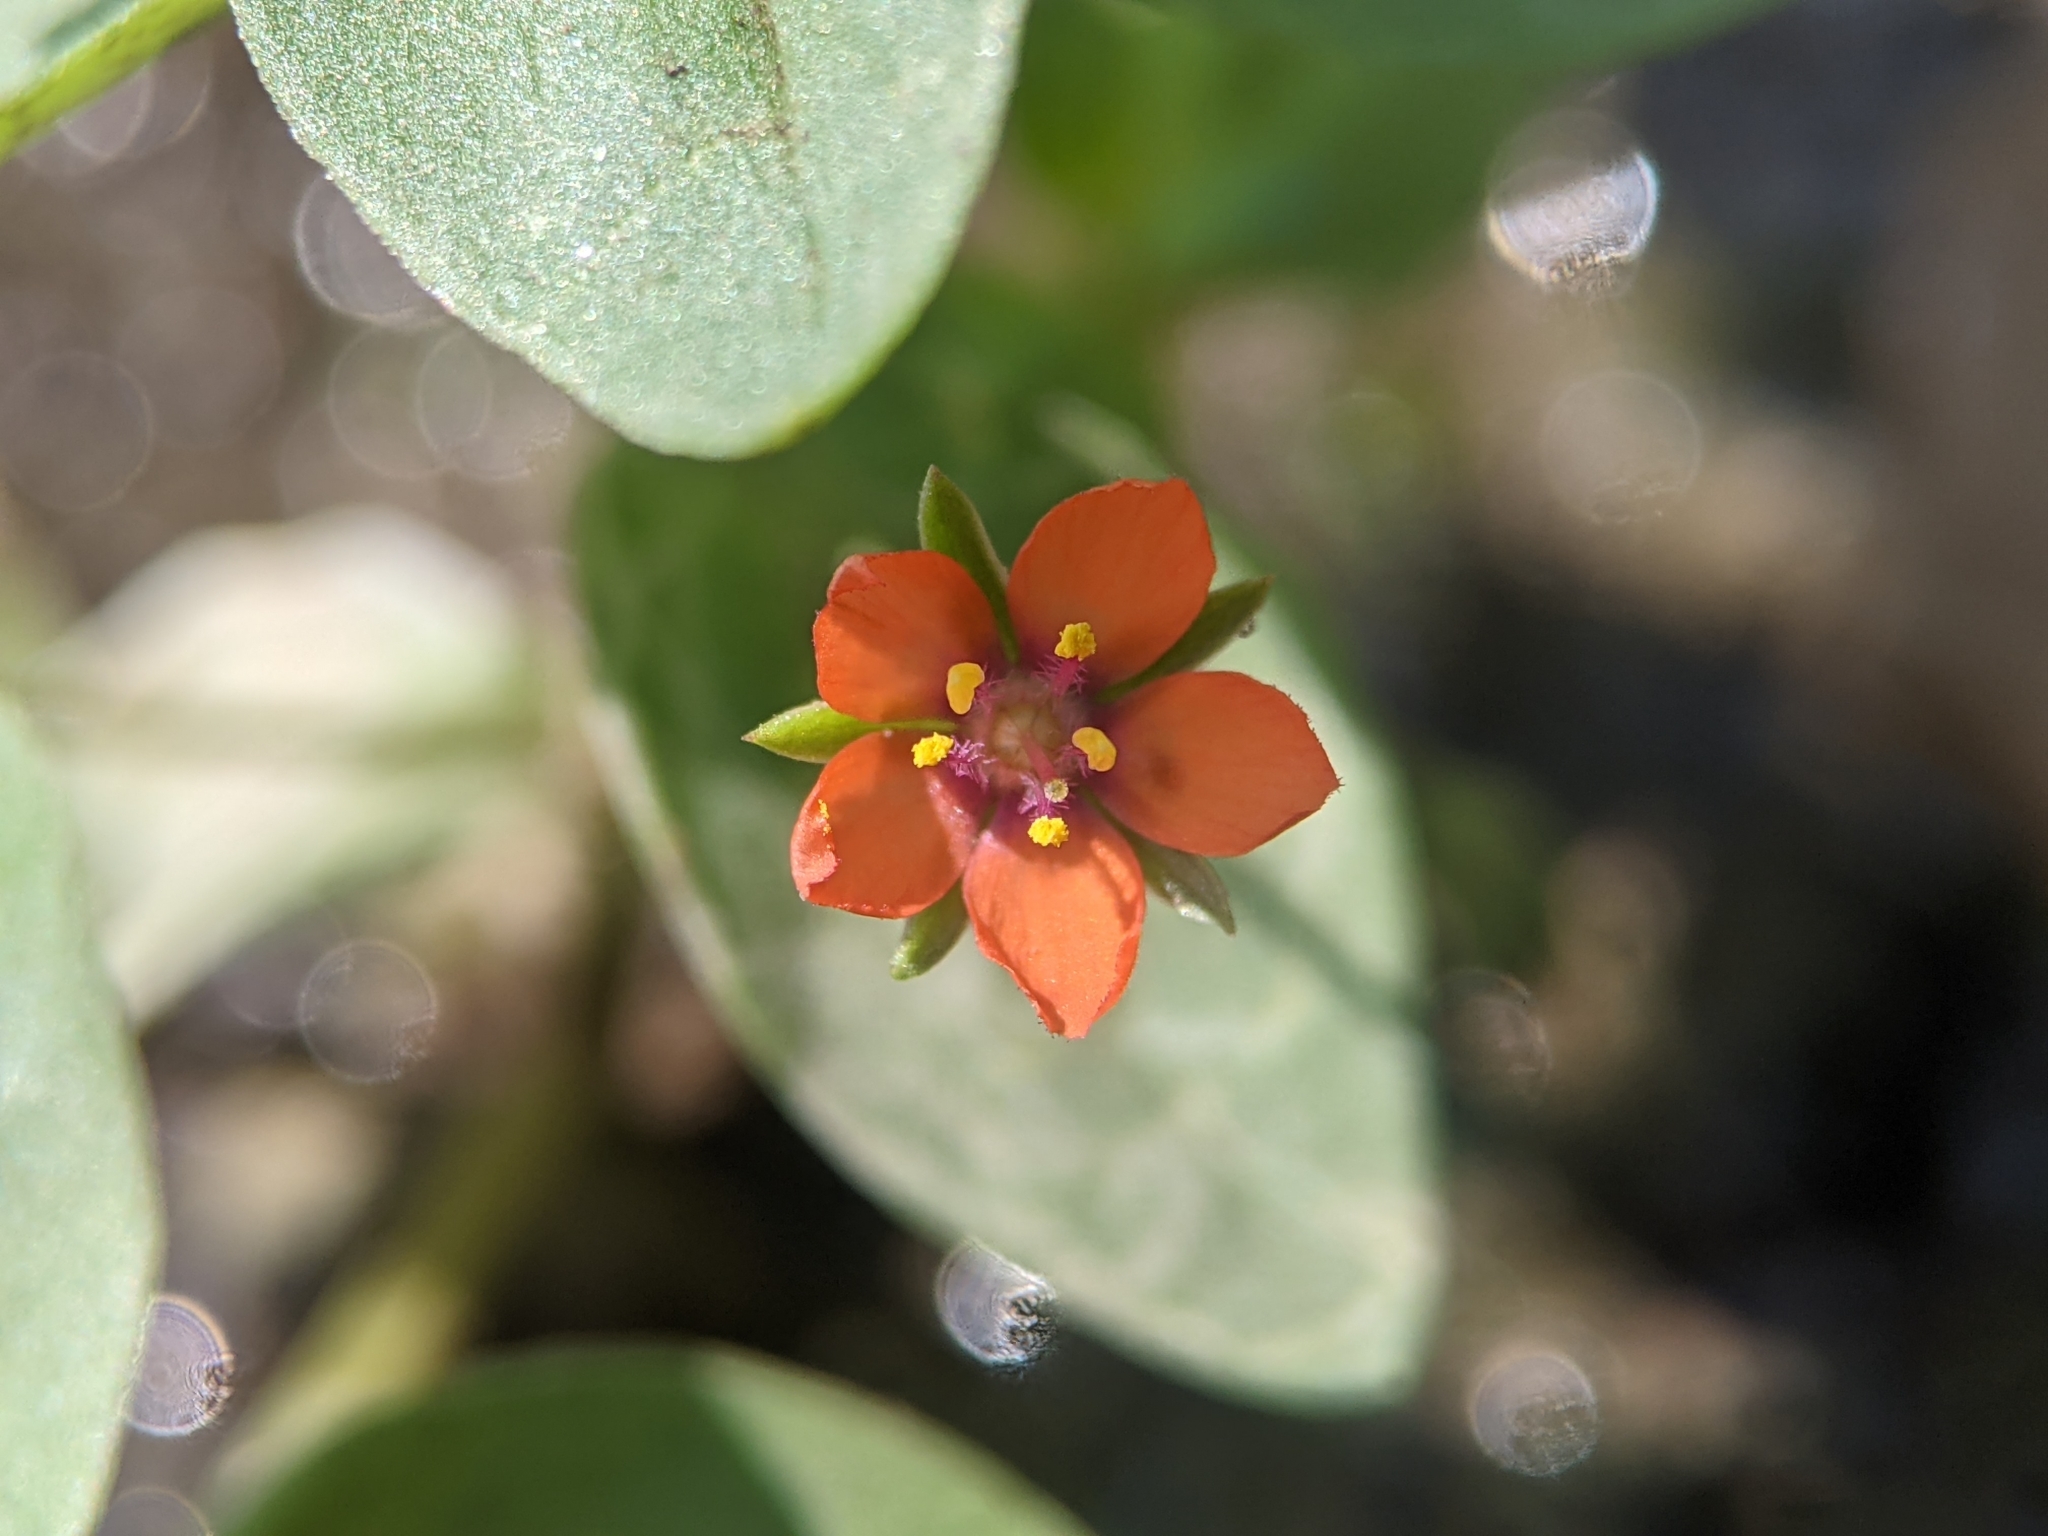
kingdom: Plantae
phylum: Tracheophyta
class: Magnoliopsida
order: Ericales
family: Primulaceae
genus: Lysimachia
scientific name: Lysimachia arvensis
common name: Scarlet pimpernel
